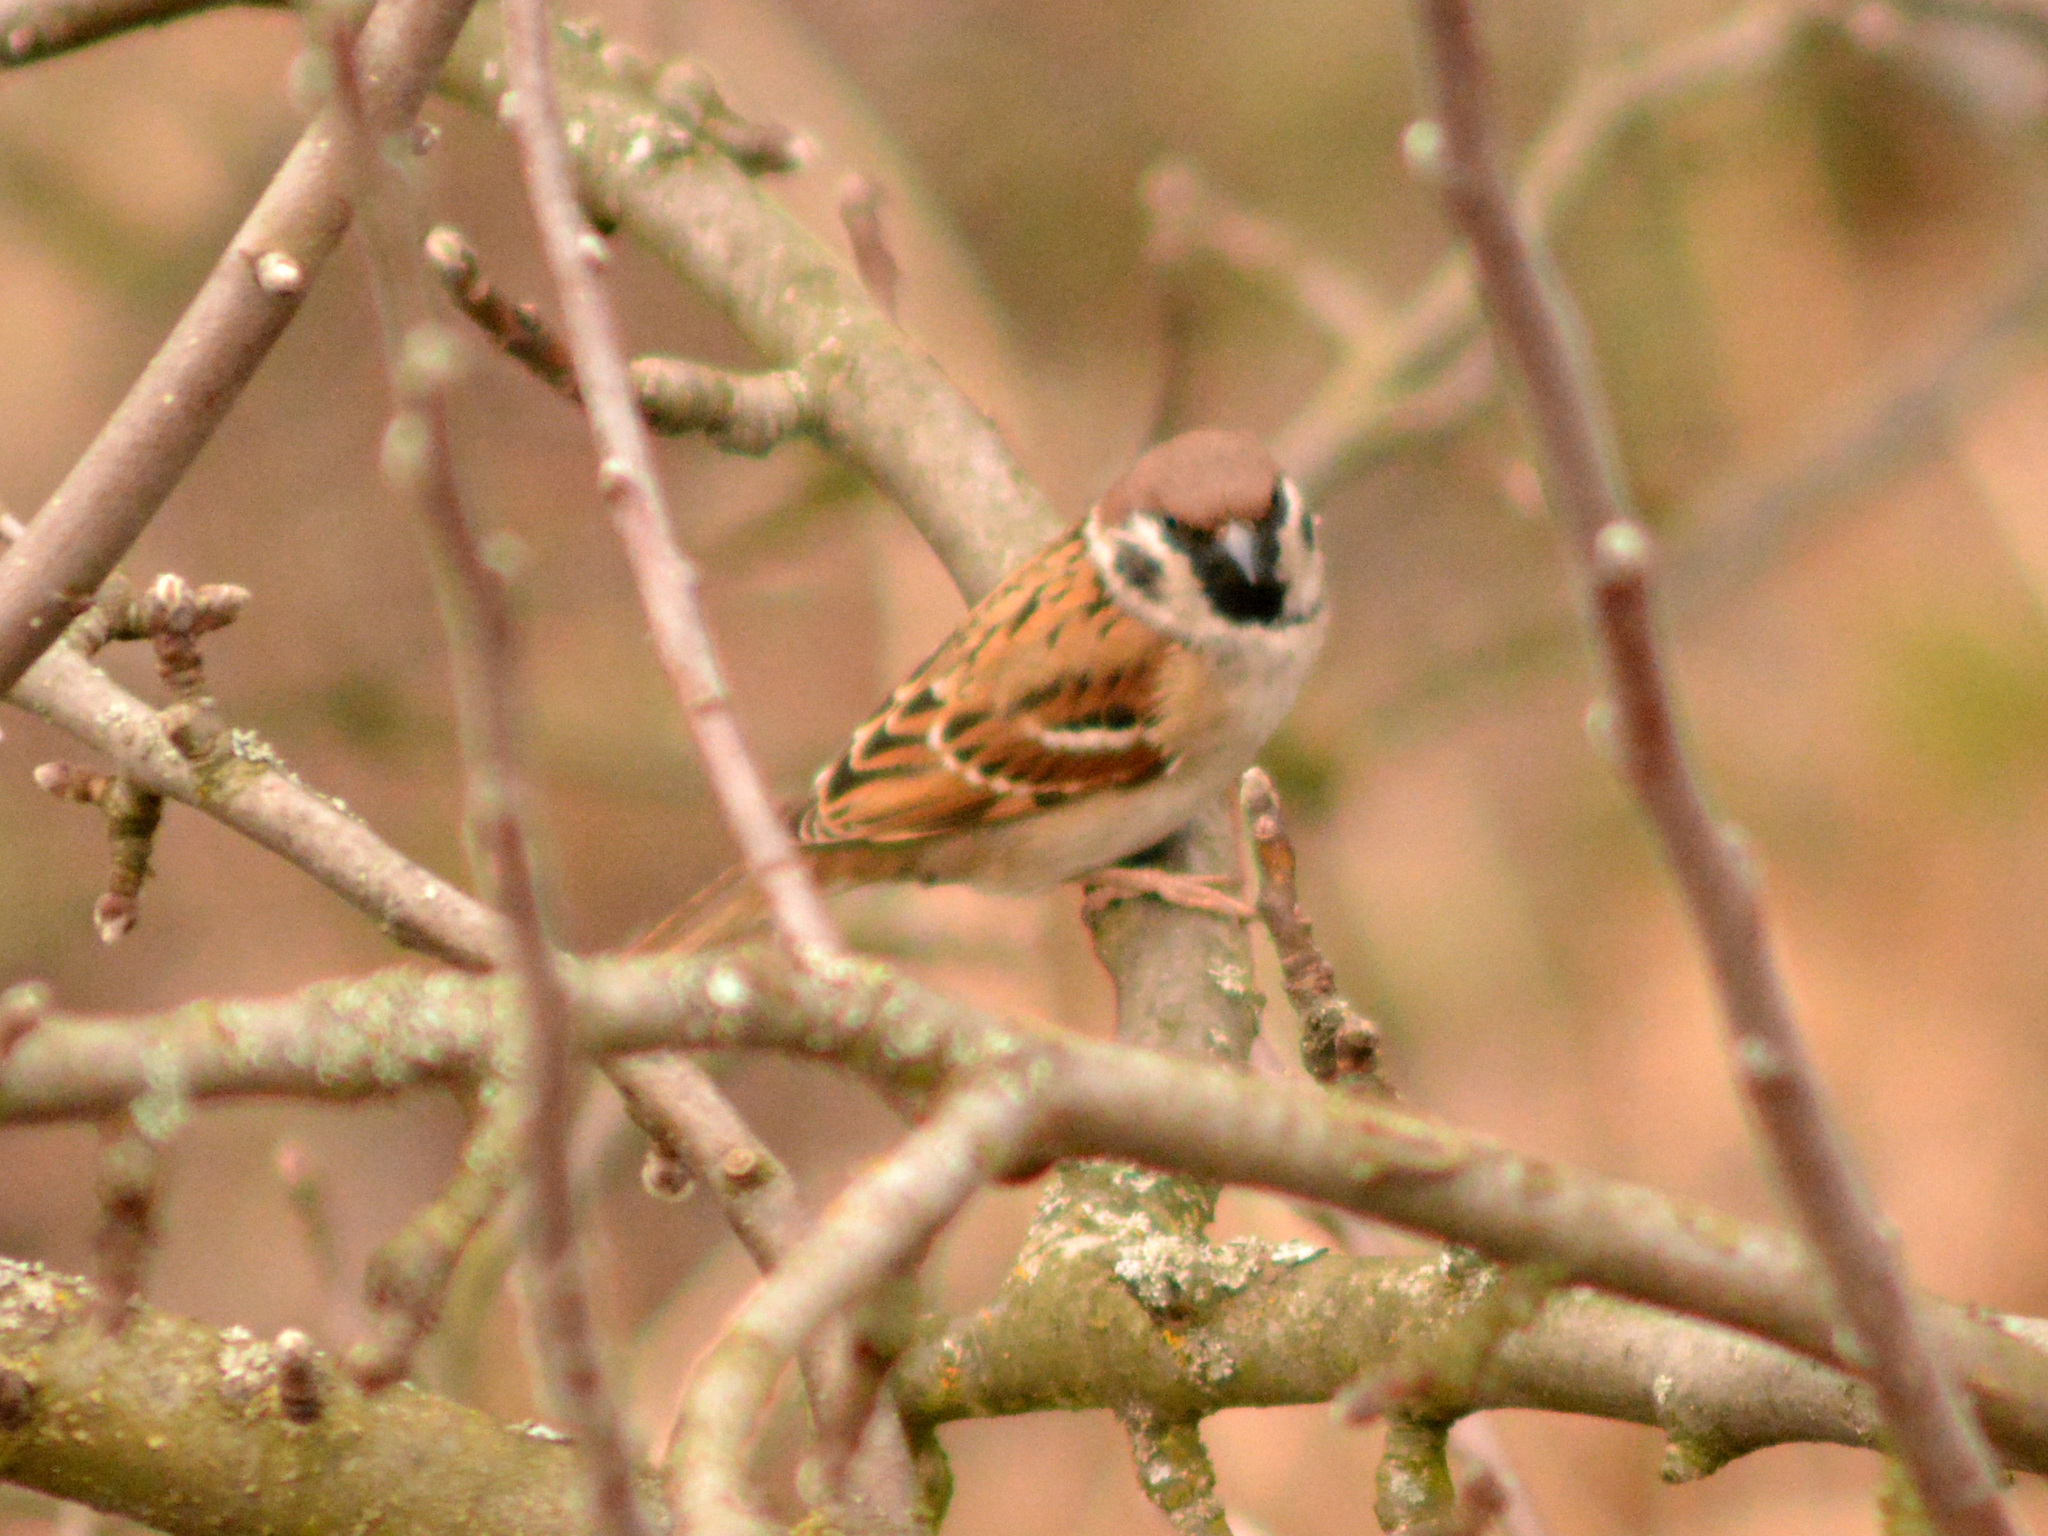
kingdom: Animalia
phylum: Chordata
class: Aves
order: Passeriformes
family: Passeridae
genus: Passer
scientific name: Passer montanus
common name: Eurasian tree sparrow
